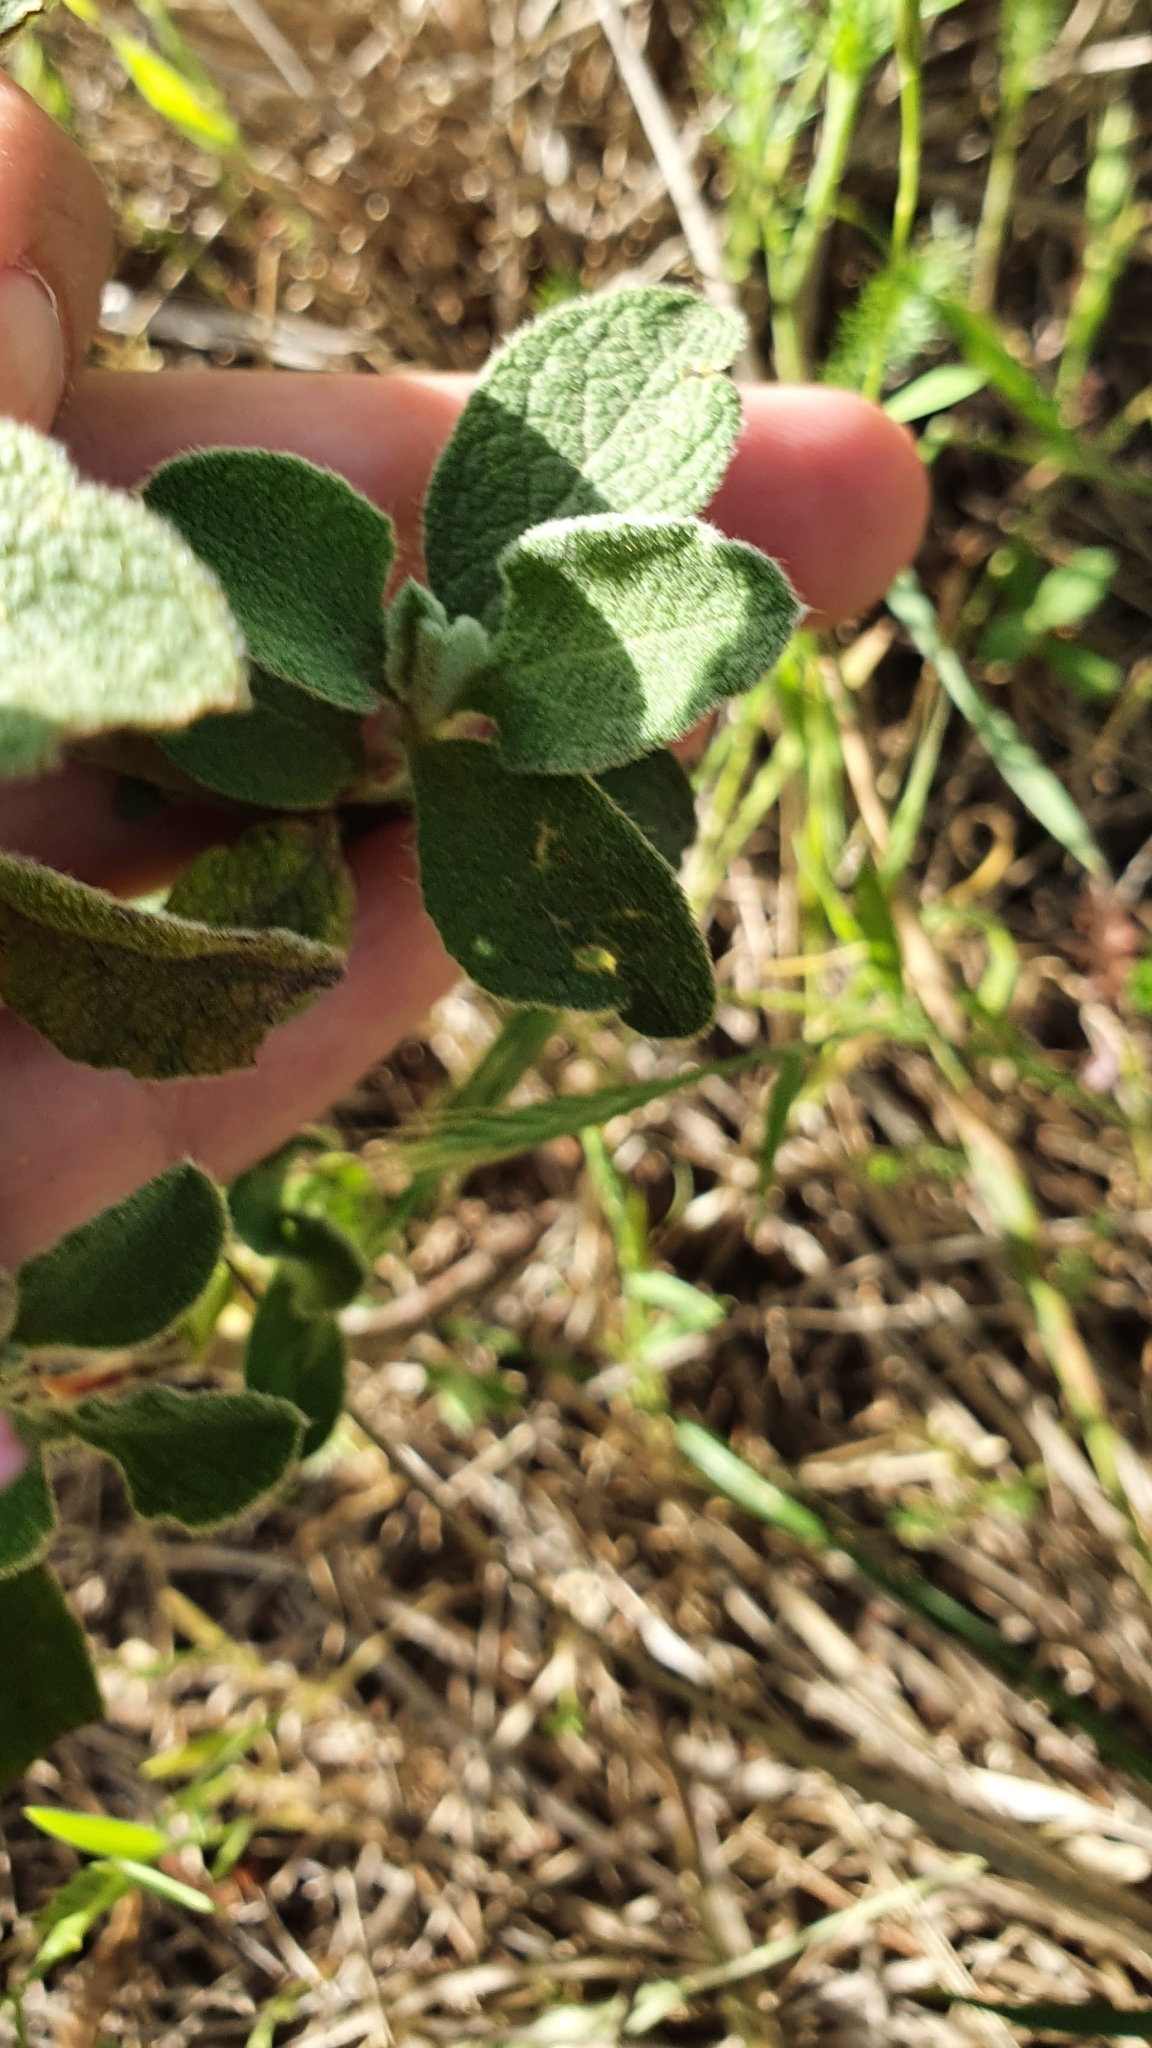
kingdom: Plantae
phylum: Tracheophyta
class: Magnoliopsida
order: Malvales
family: Cistaceae
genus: Cistus
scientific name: Cistus creticus
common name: Cretan rockrose
